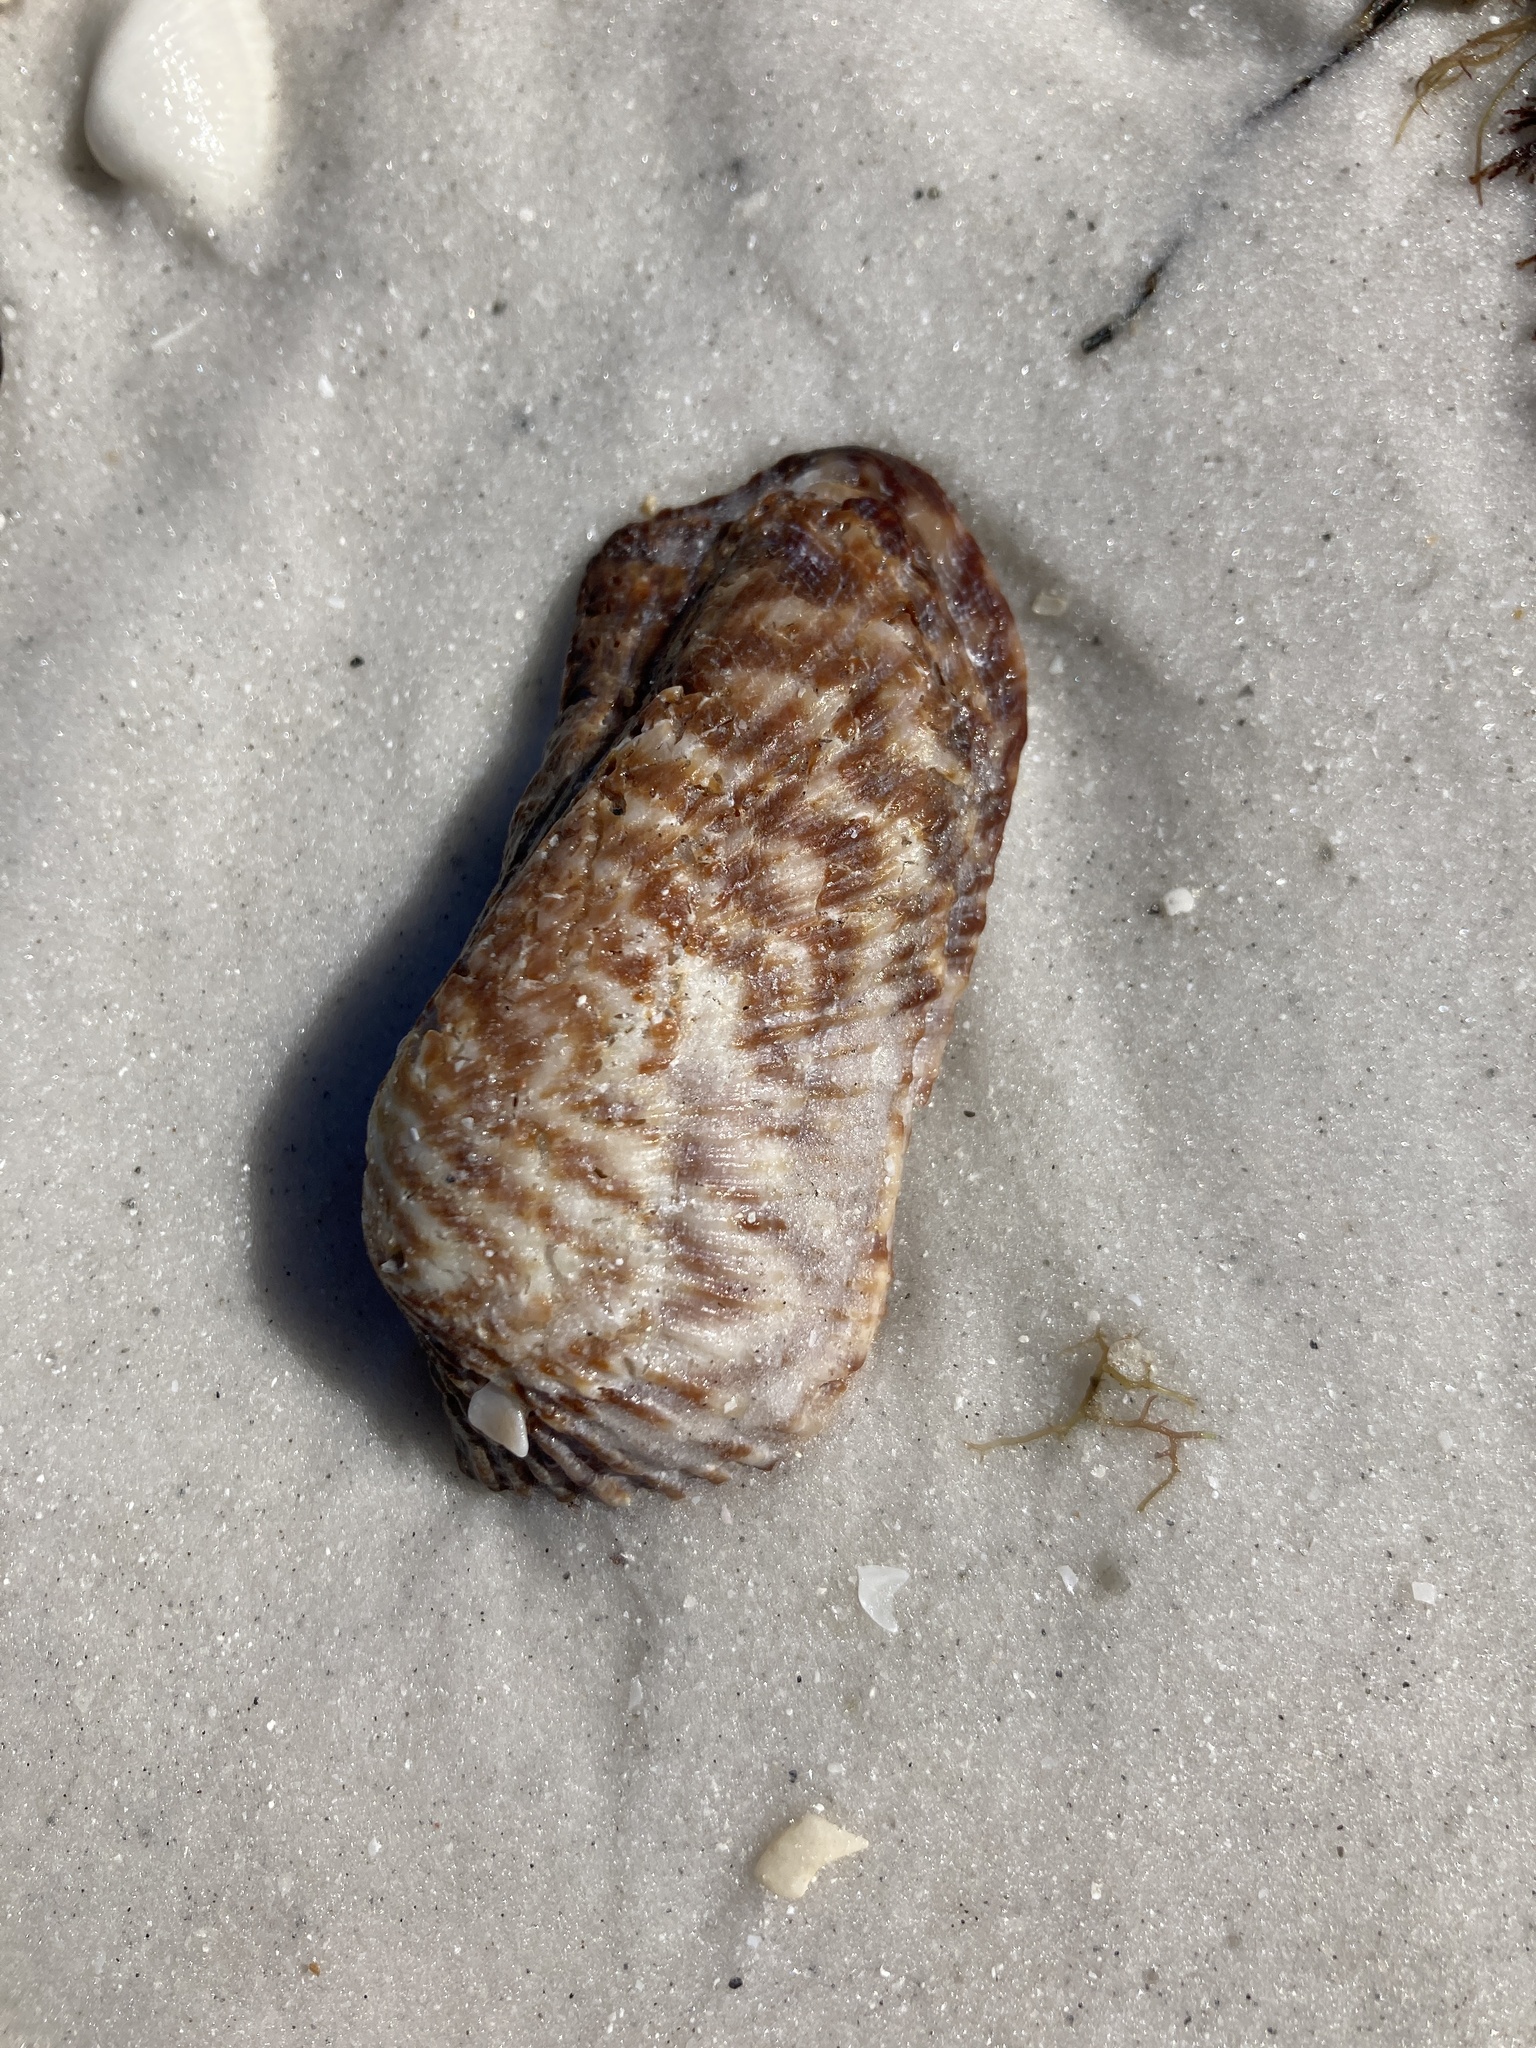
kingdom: Animalia
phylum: Mollusca
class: Bivalvia
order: Arcida
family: Arcidae
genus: Arca
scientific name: Arca zebra
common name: Atlantic turkey wing
